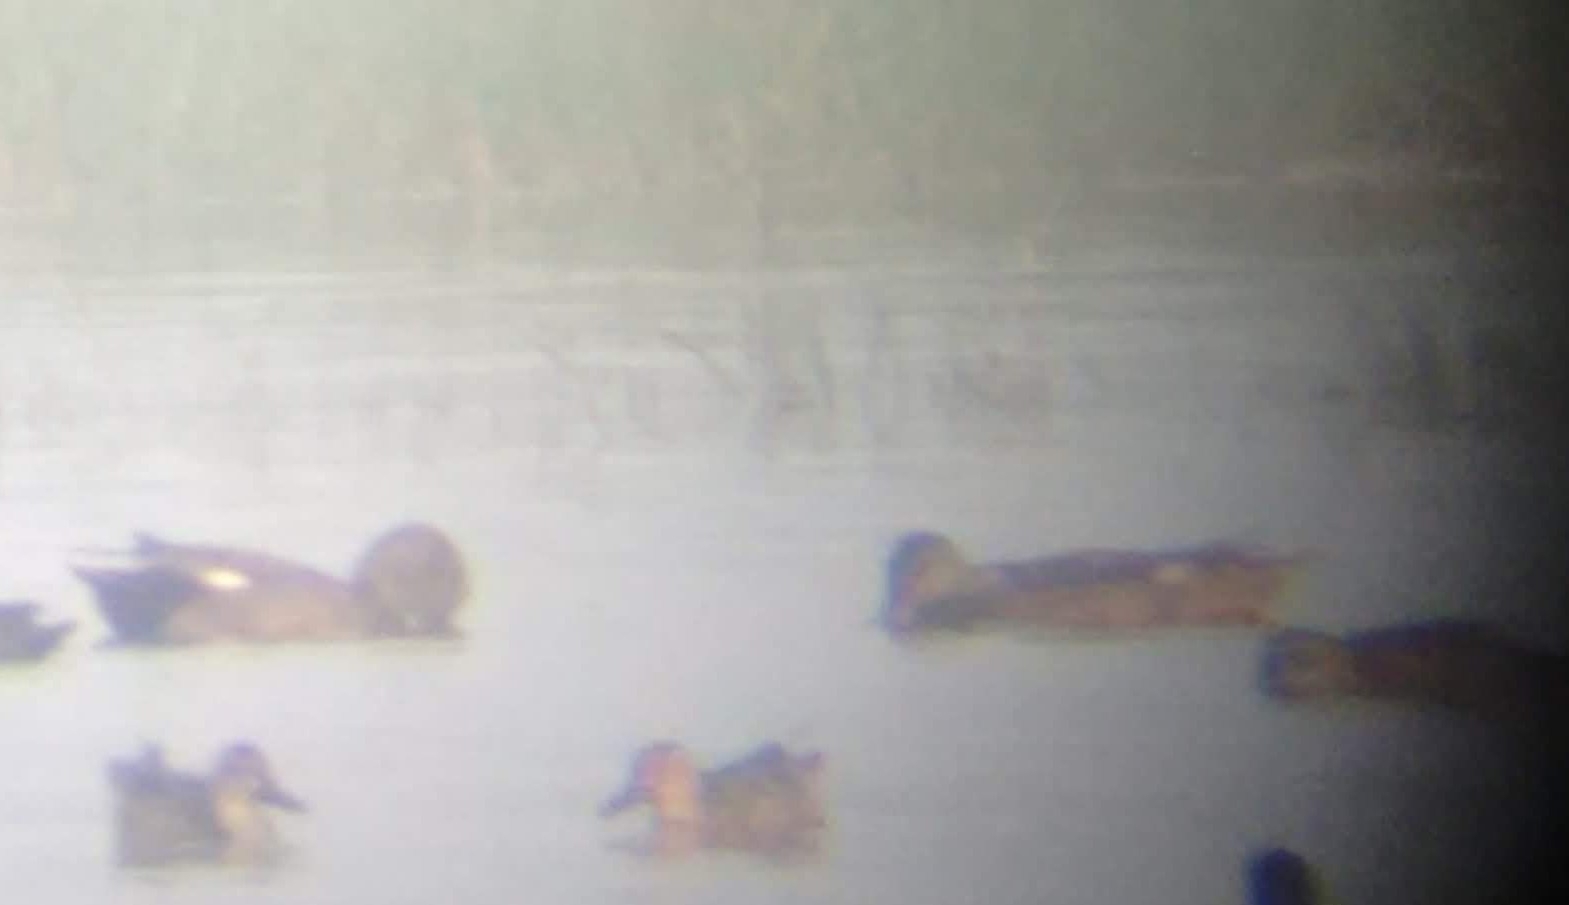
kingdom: Animalia
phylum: Chordata
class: Aves
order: Anseriformes
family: Anatidae
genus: Mareca
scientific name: Mareca strepera
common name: Gadwall
